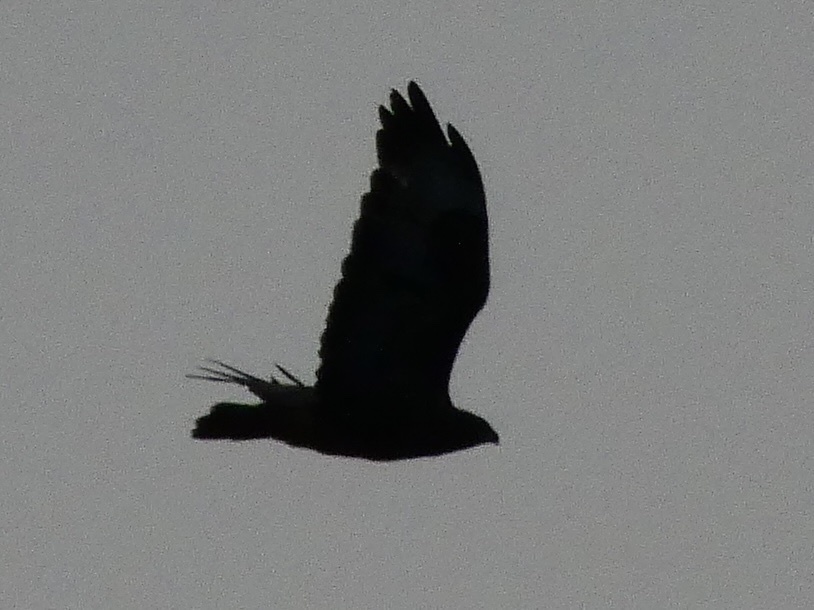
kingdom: Animalia
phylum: Chordata
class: Aves
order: Accipitriformes
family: Accipitridae
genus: Buteo
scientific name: Buteo buteo
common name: Common buzzard
